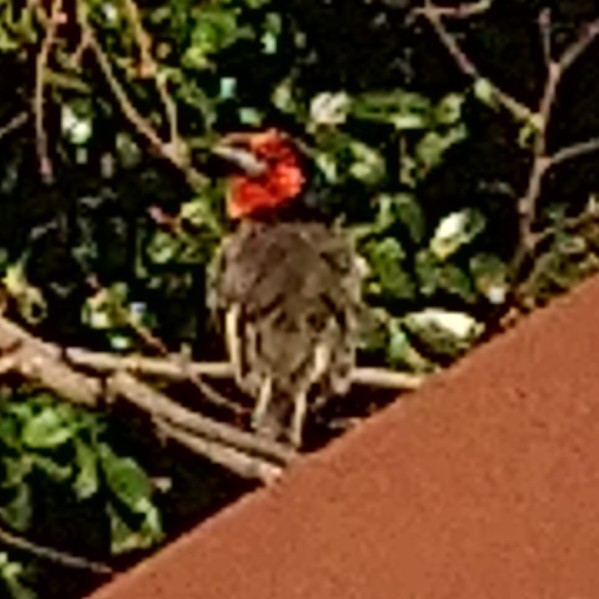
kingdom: Animalia
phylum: Chordata
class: Aves
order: Piciformes
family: Lybiidae
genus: Lybius
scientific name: Lybius torquatus
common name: Black-collared barbet
